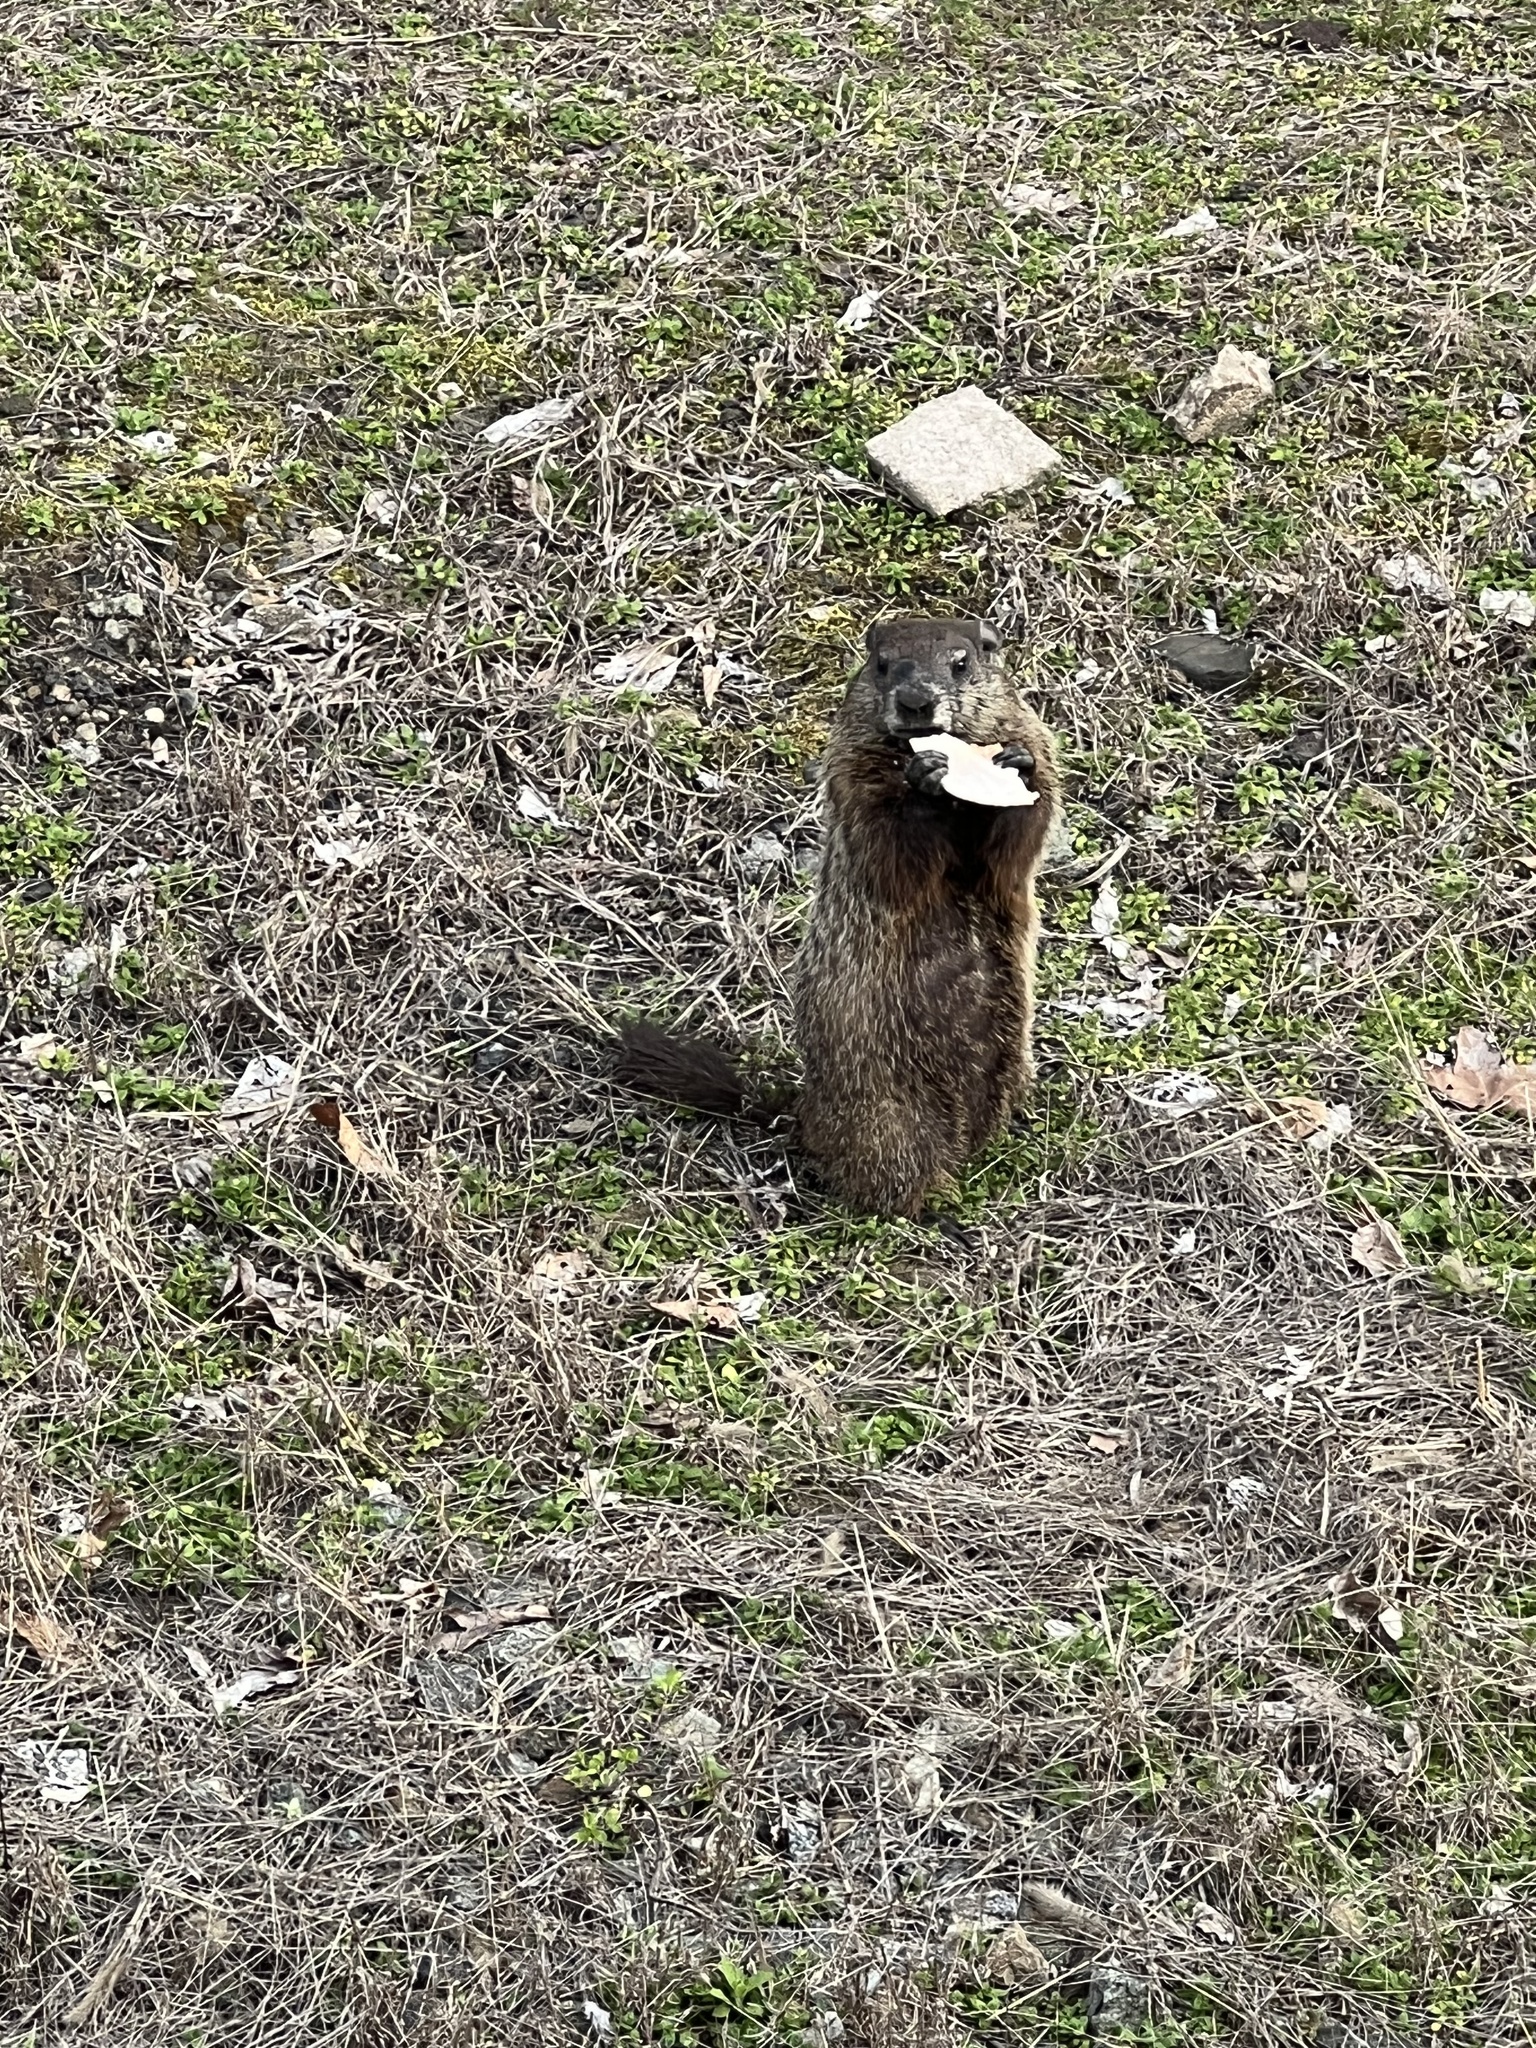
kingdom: Animalia
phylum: Chordata
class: Mammalia
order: Rodentia
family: Sciuridae
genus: Marmota
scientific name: Marmota monax
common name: Groundhog
